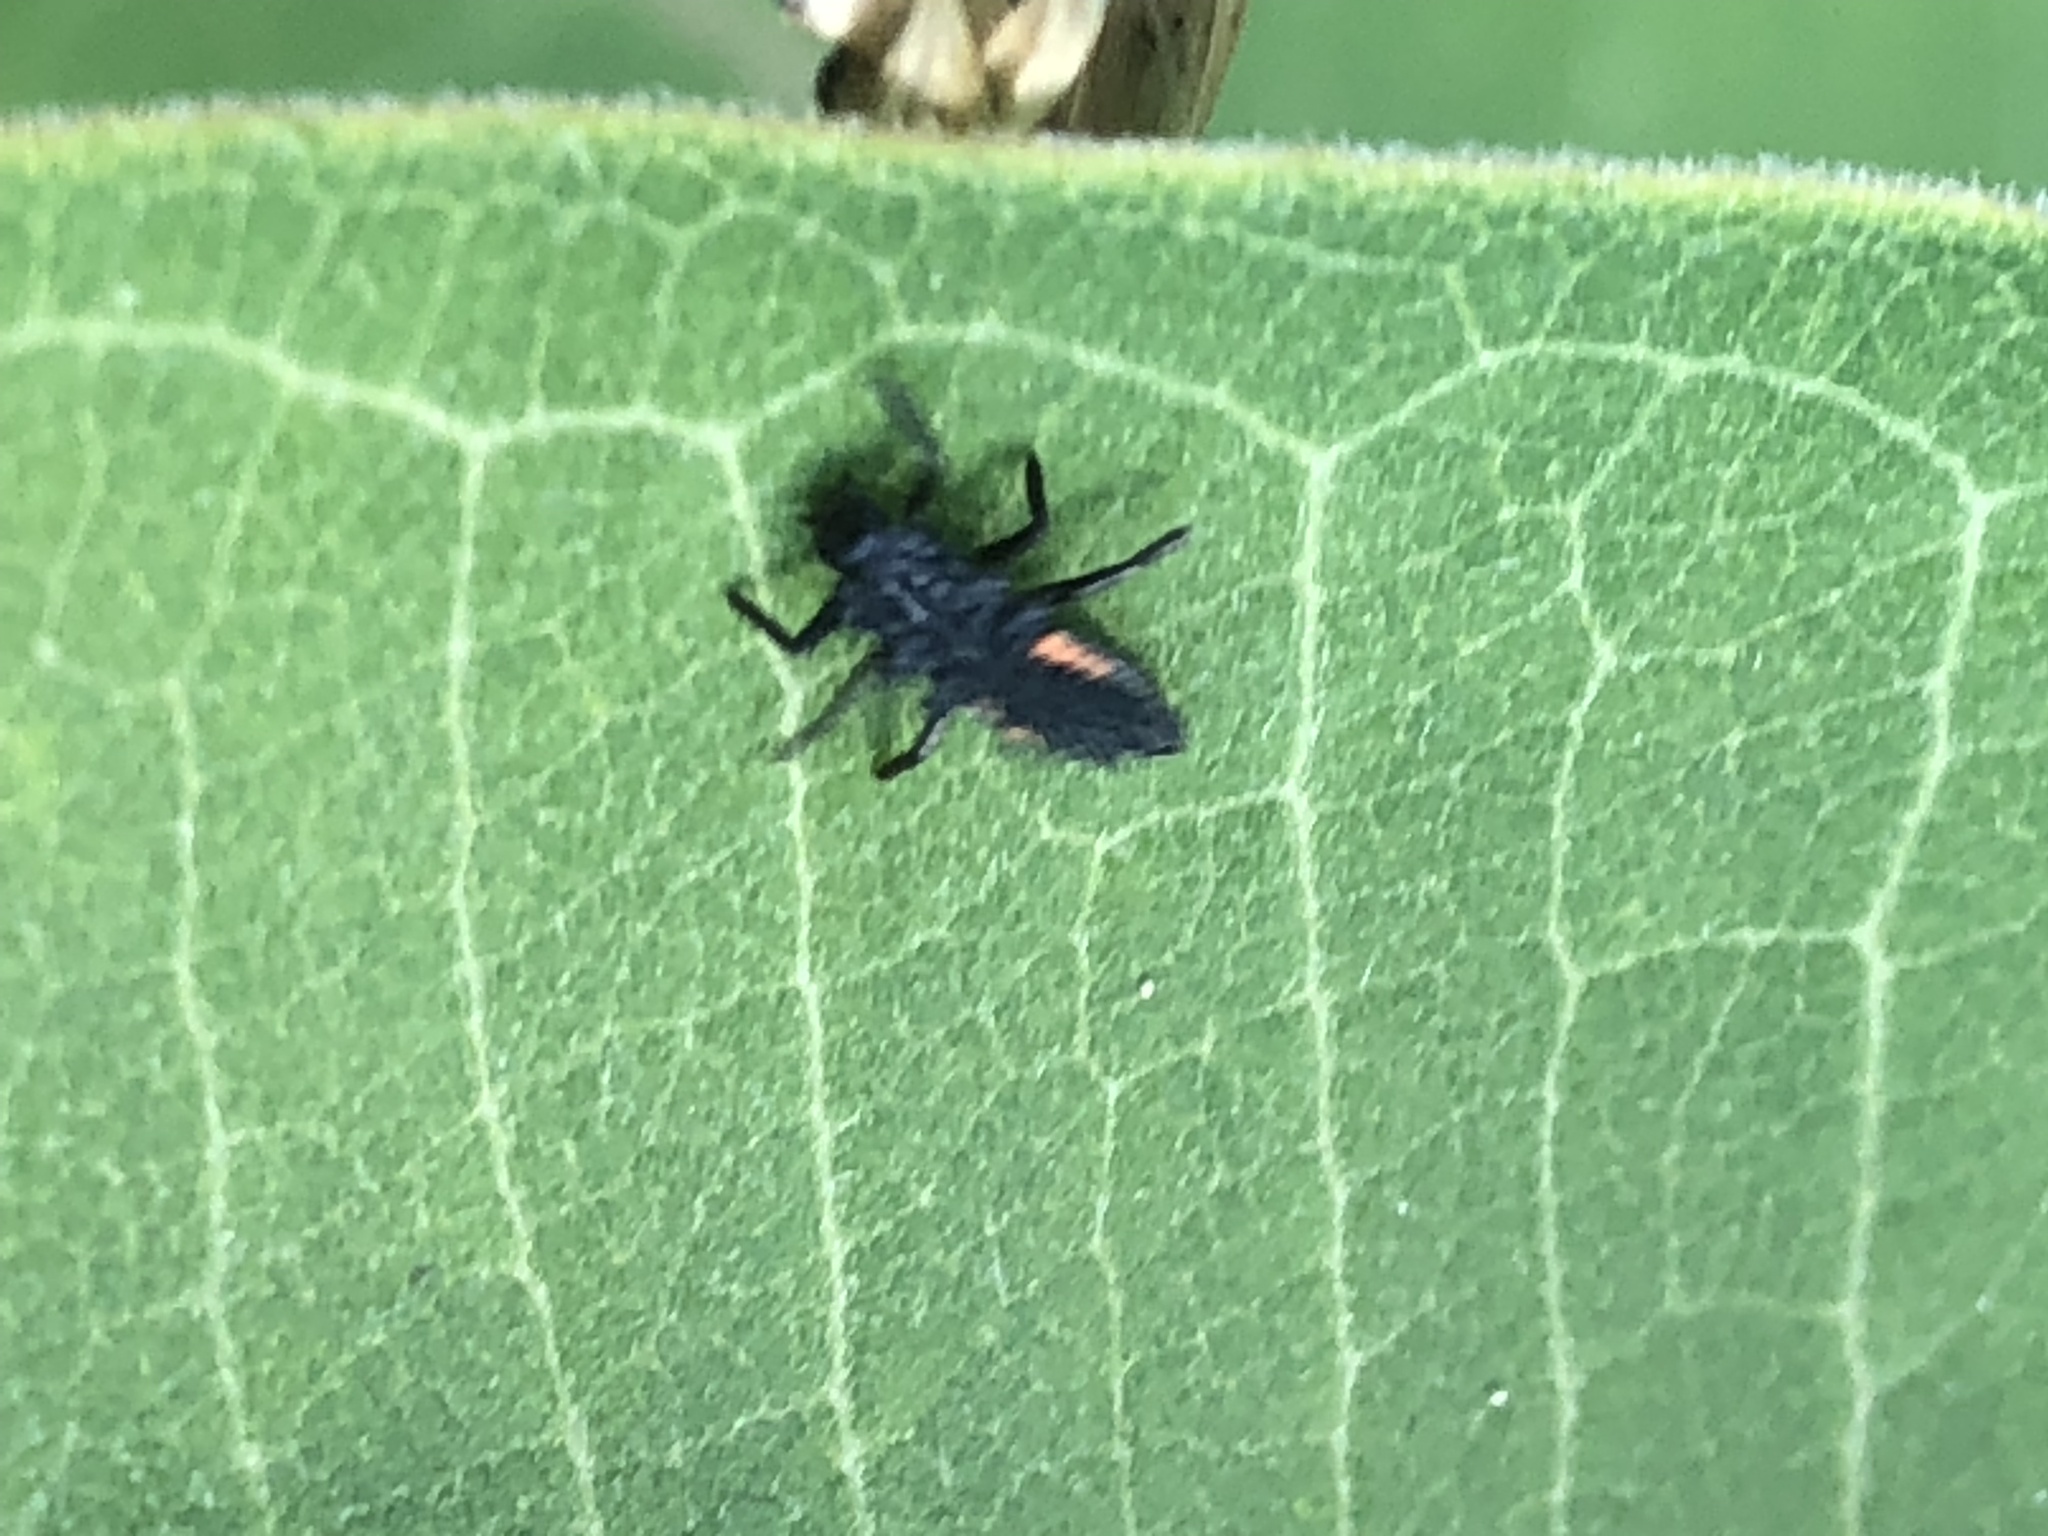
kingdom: Animalia
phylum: Arthropoda
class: Insecta
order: Coleoptera
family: Coccinellidae
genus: Harmonia
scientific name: Harmonia axyridis
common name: Harlequin ladybird
